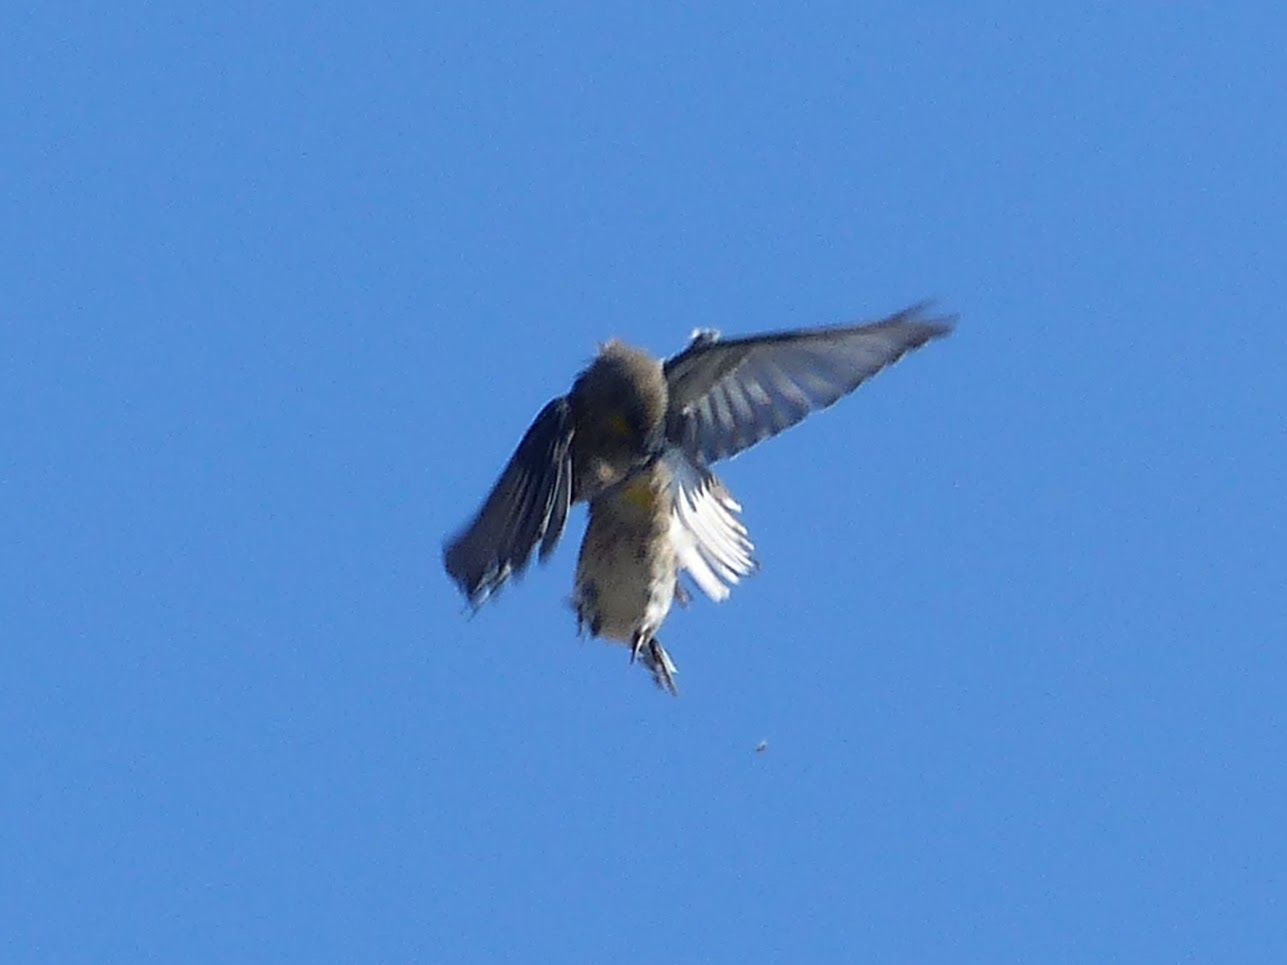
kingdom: Animalia
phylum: Chordata
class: Aves
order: Passeriformes
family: Parulidae
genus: Setophaga
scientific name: Setophaga auduboni
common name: Audubon's warbler
